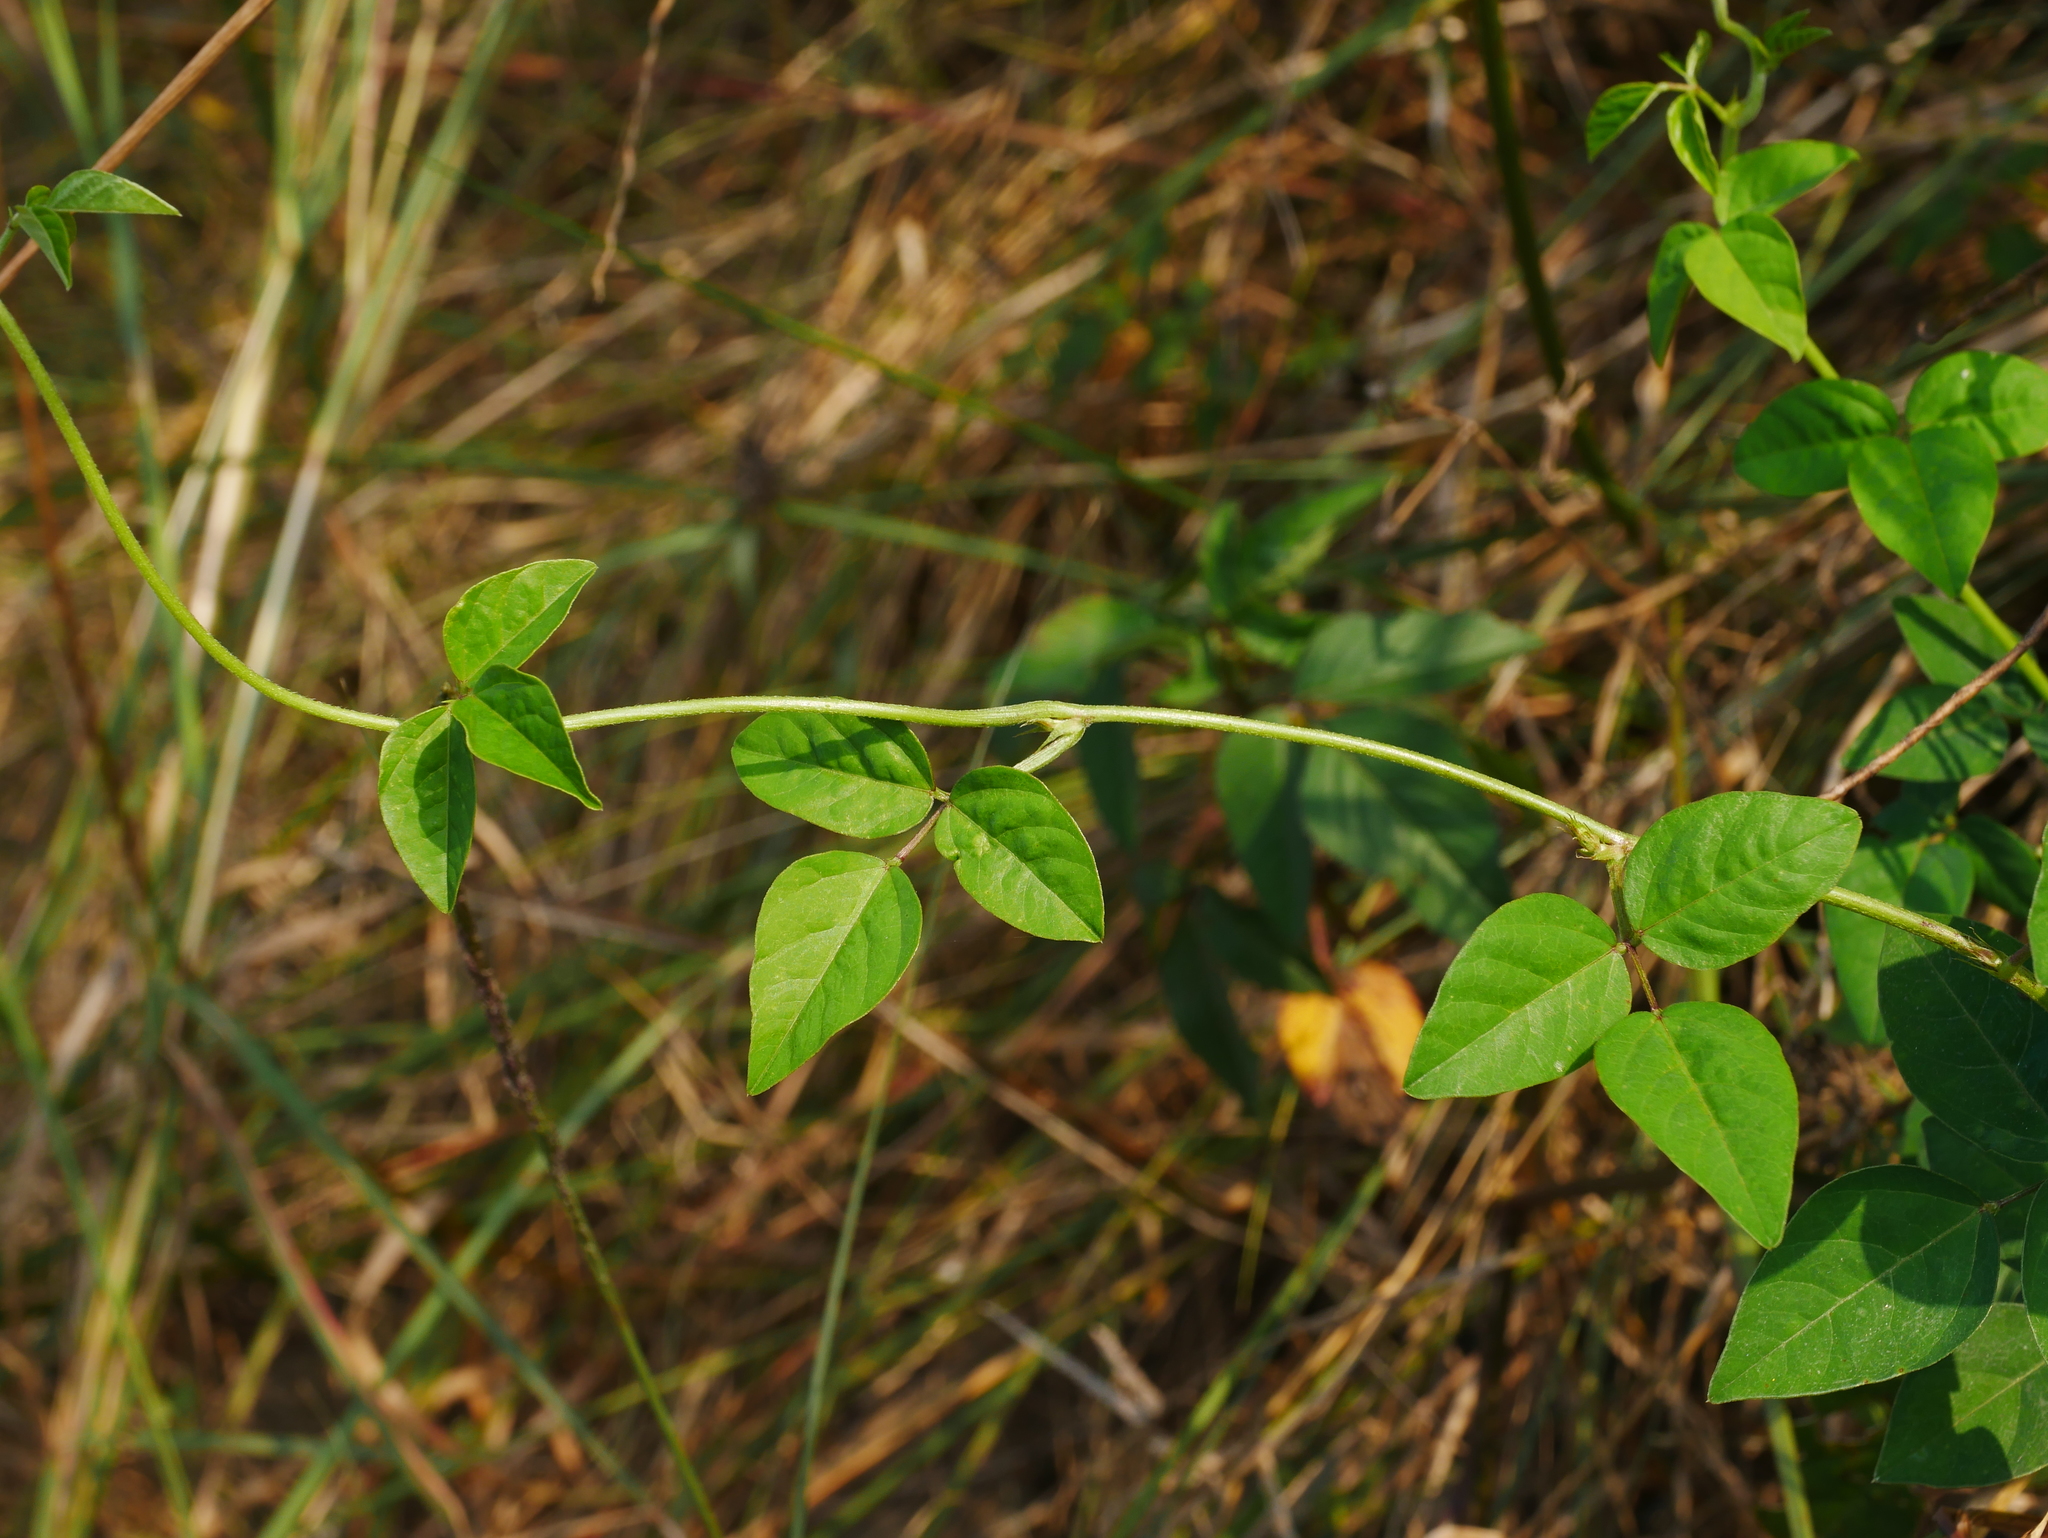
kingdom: Plantae
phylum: Tracheophyta
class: Magnoliopsida
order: Fabales
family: Fabaceae
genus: Macroptilium
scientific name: Macroptilium lathyroides
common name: Wild bushbean
